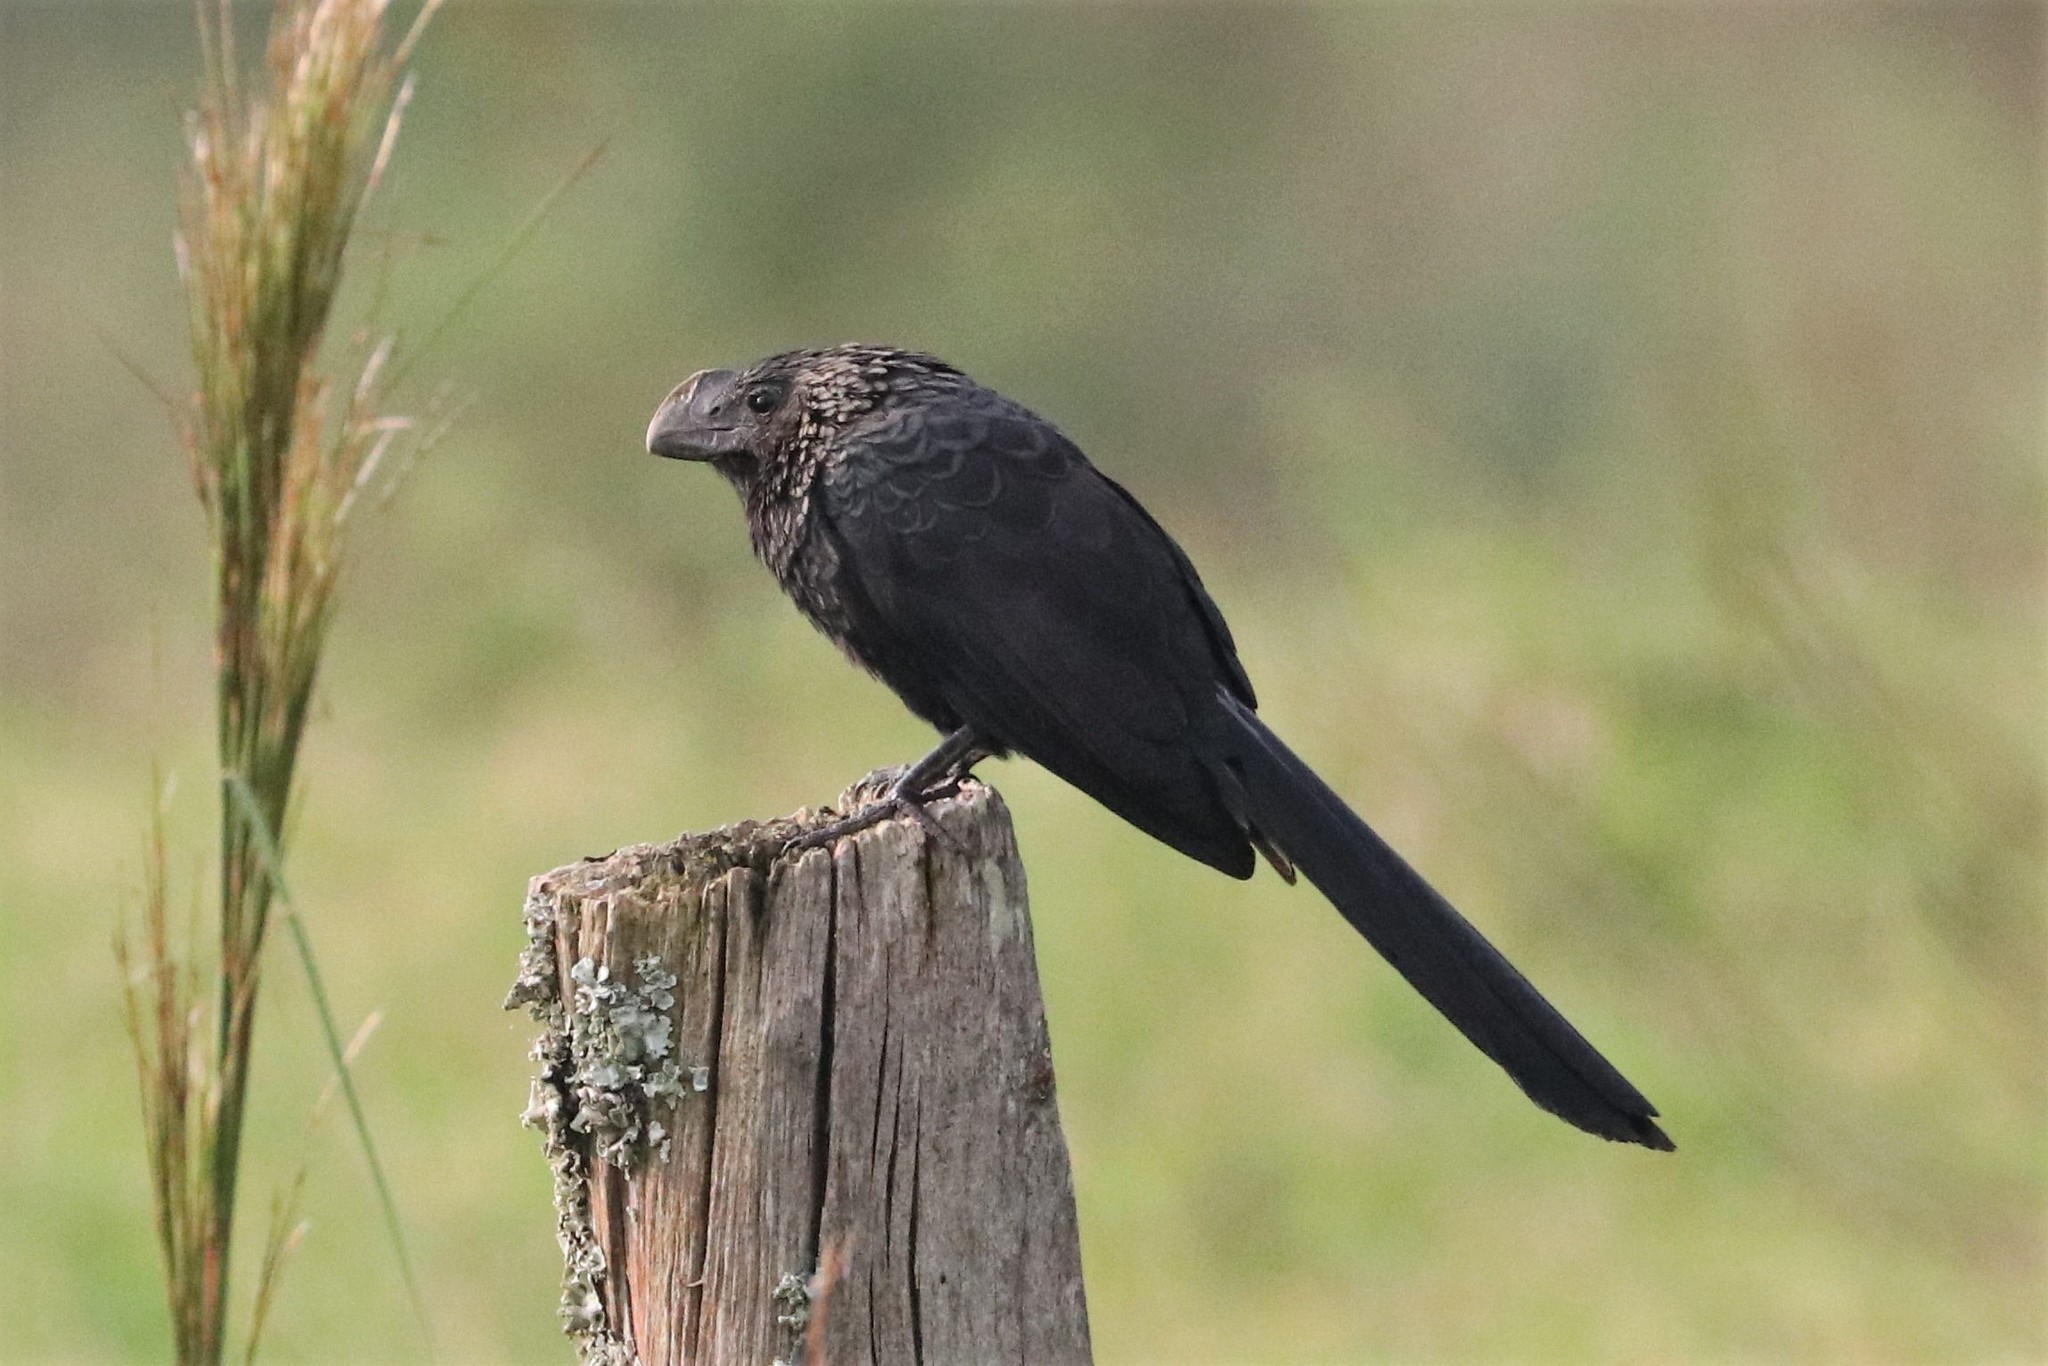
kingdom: Animalia
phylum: Chordata
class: Aves
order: Cuculiformes
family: Cuculidae
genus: Crotophaga
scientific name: Crotophaga ani
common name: Smooth-billed ani
